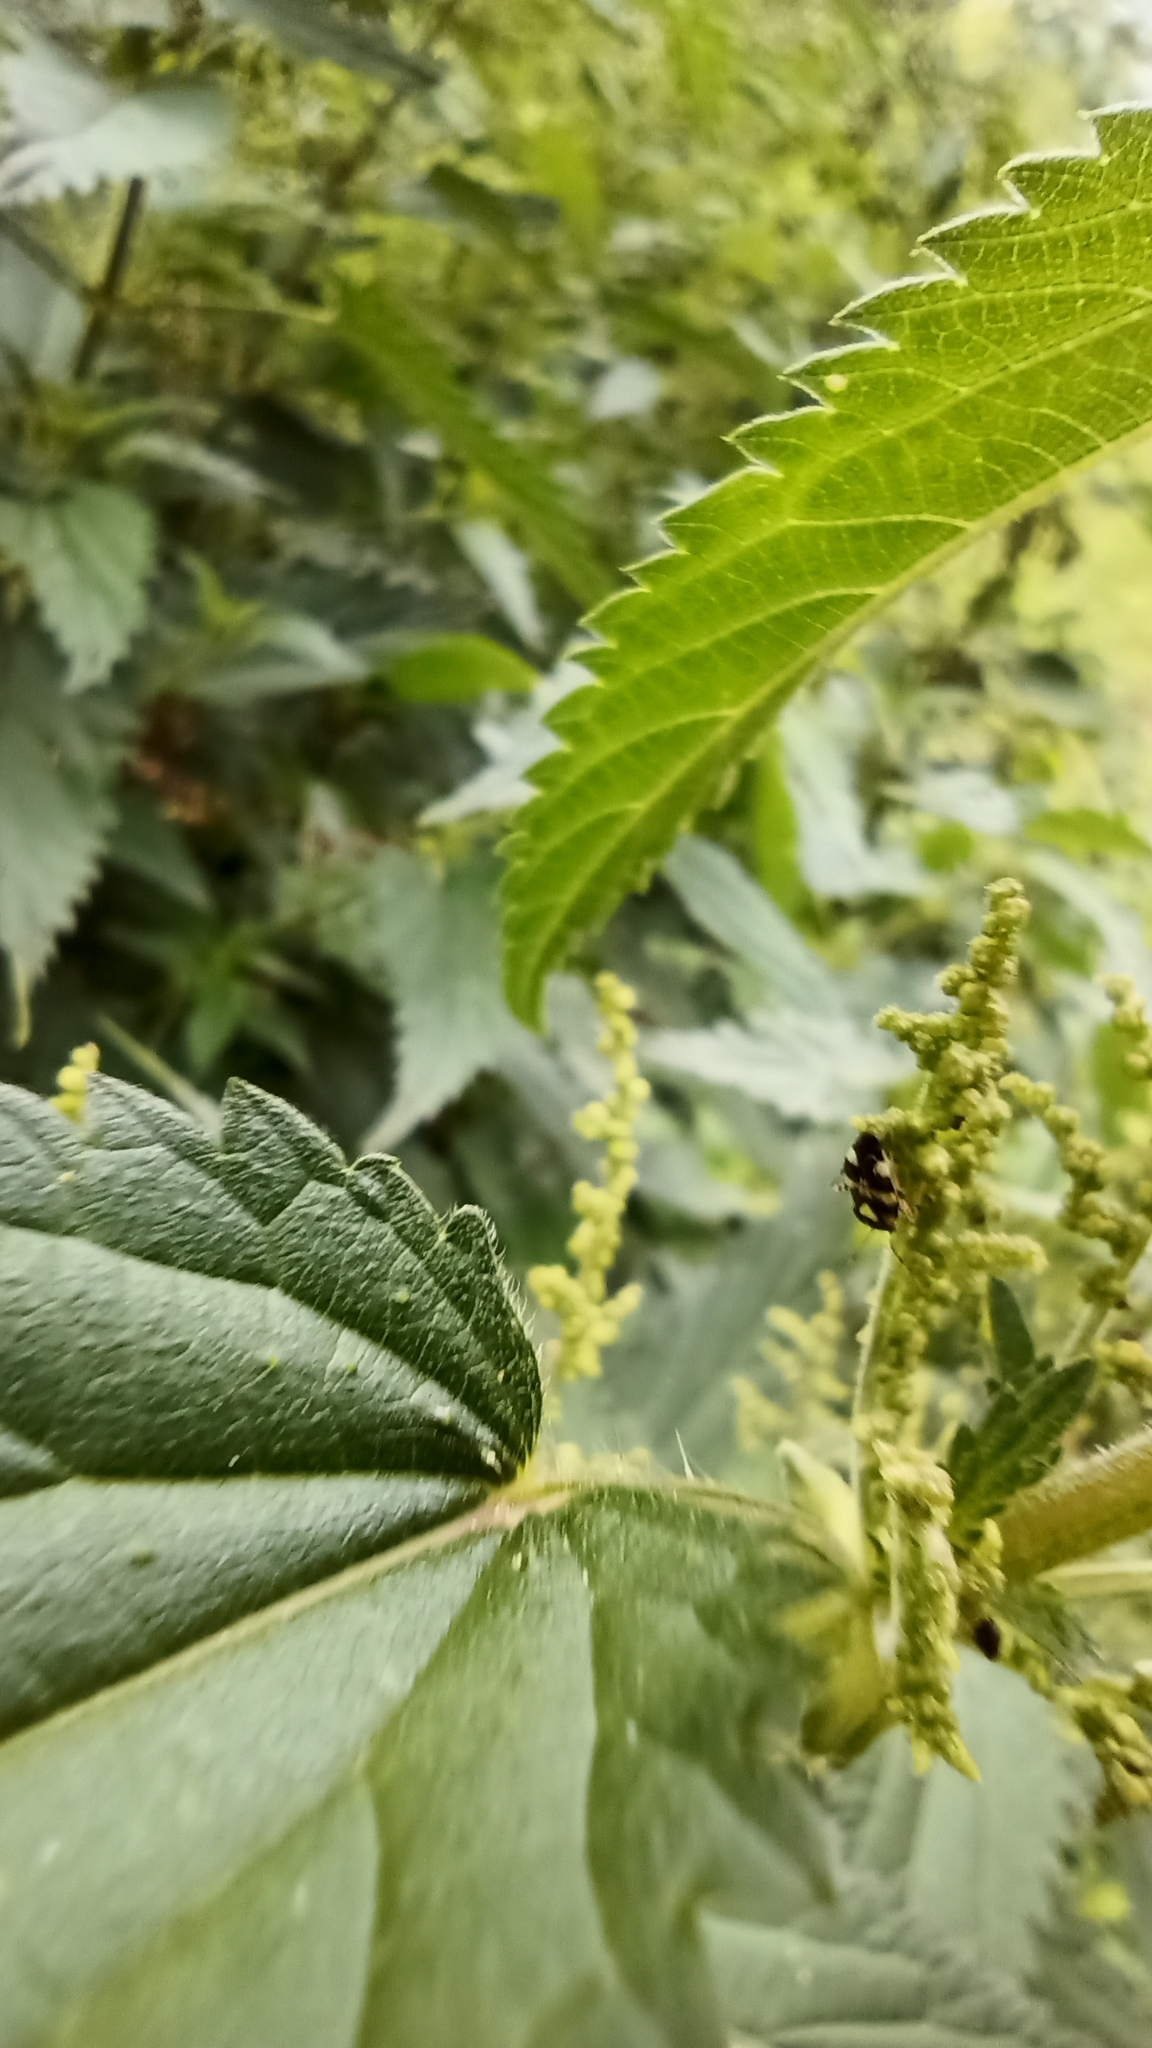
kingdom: Animalia
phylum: Arthropoda
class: Insecta
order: Hemiptera
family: Miridae
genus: Liocoris
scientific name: Liocoris tripustulatus
